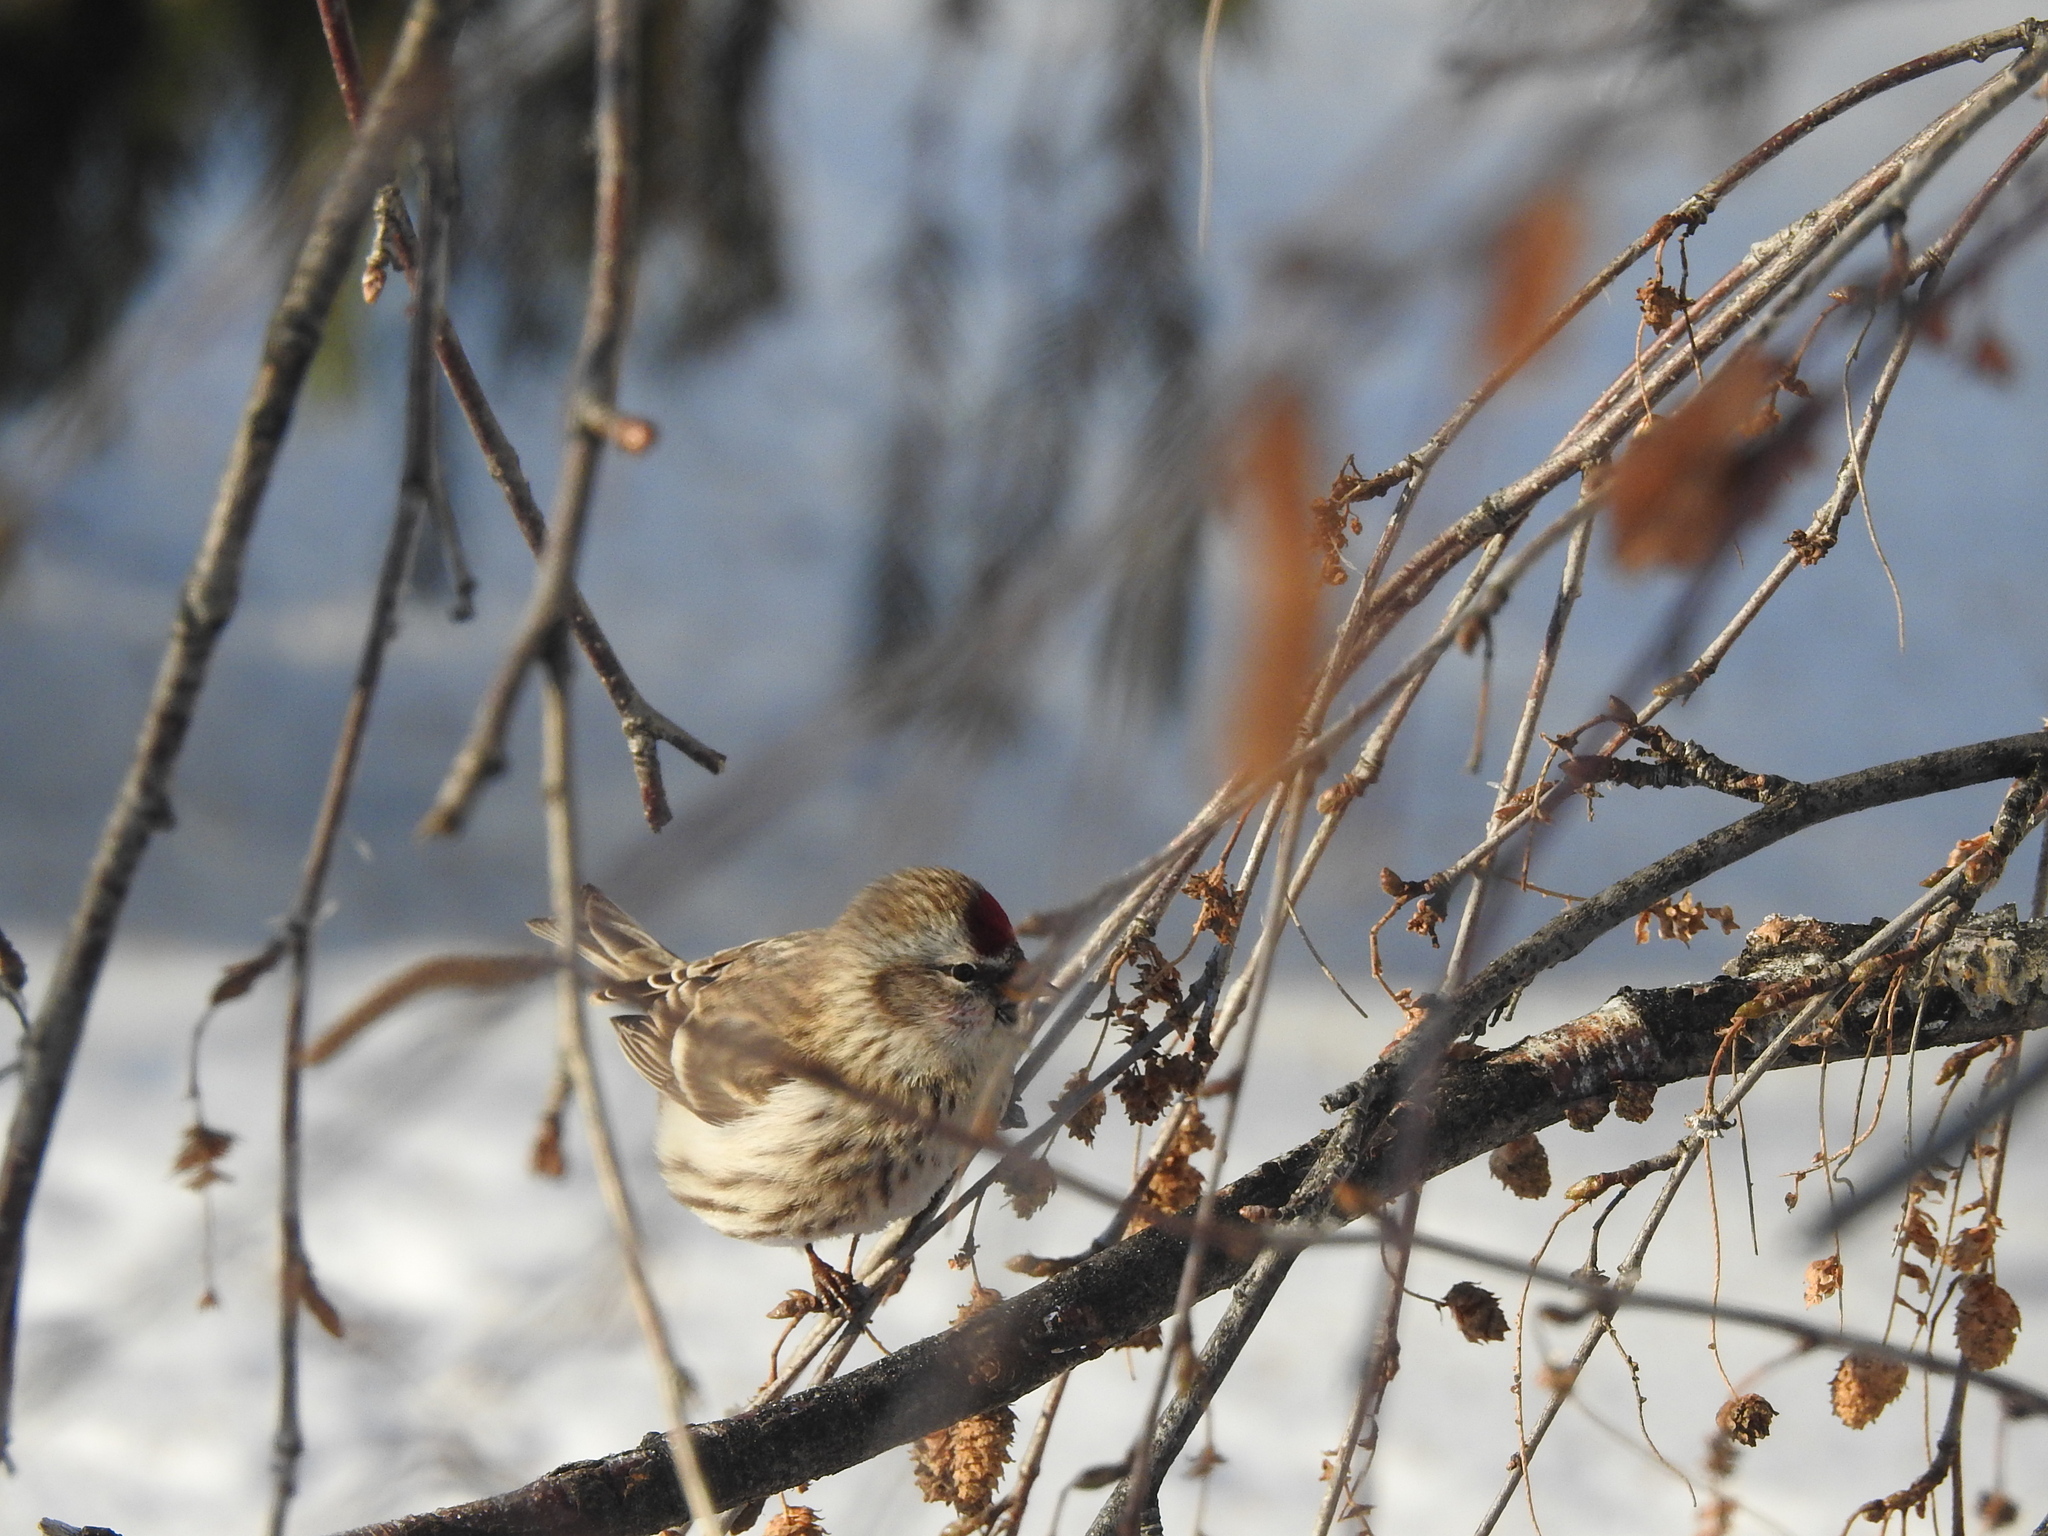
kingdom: Animalia
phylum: Chordata
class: Aves
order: Passeriformes
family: Fringillidae
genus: Acanthis
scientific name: Acanthis flammea
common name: Common redpoll
